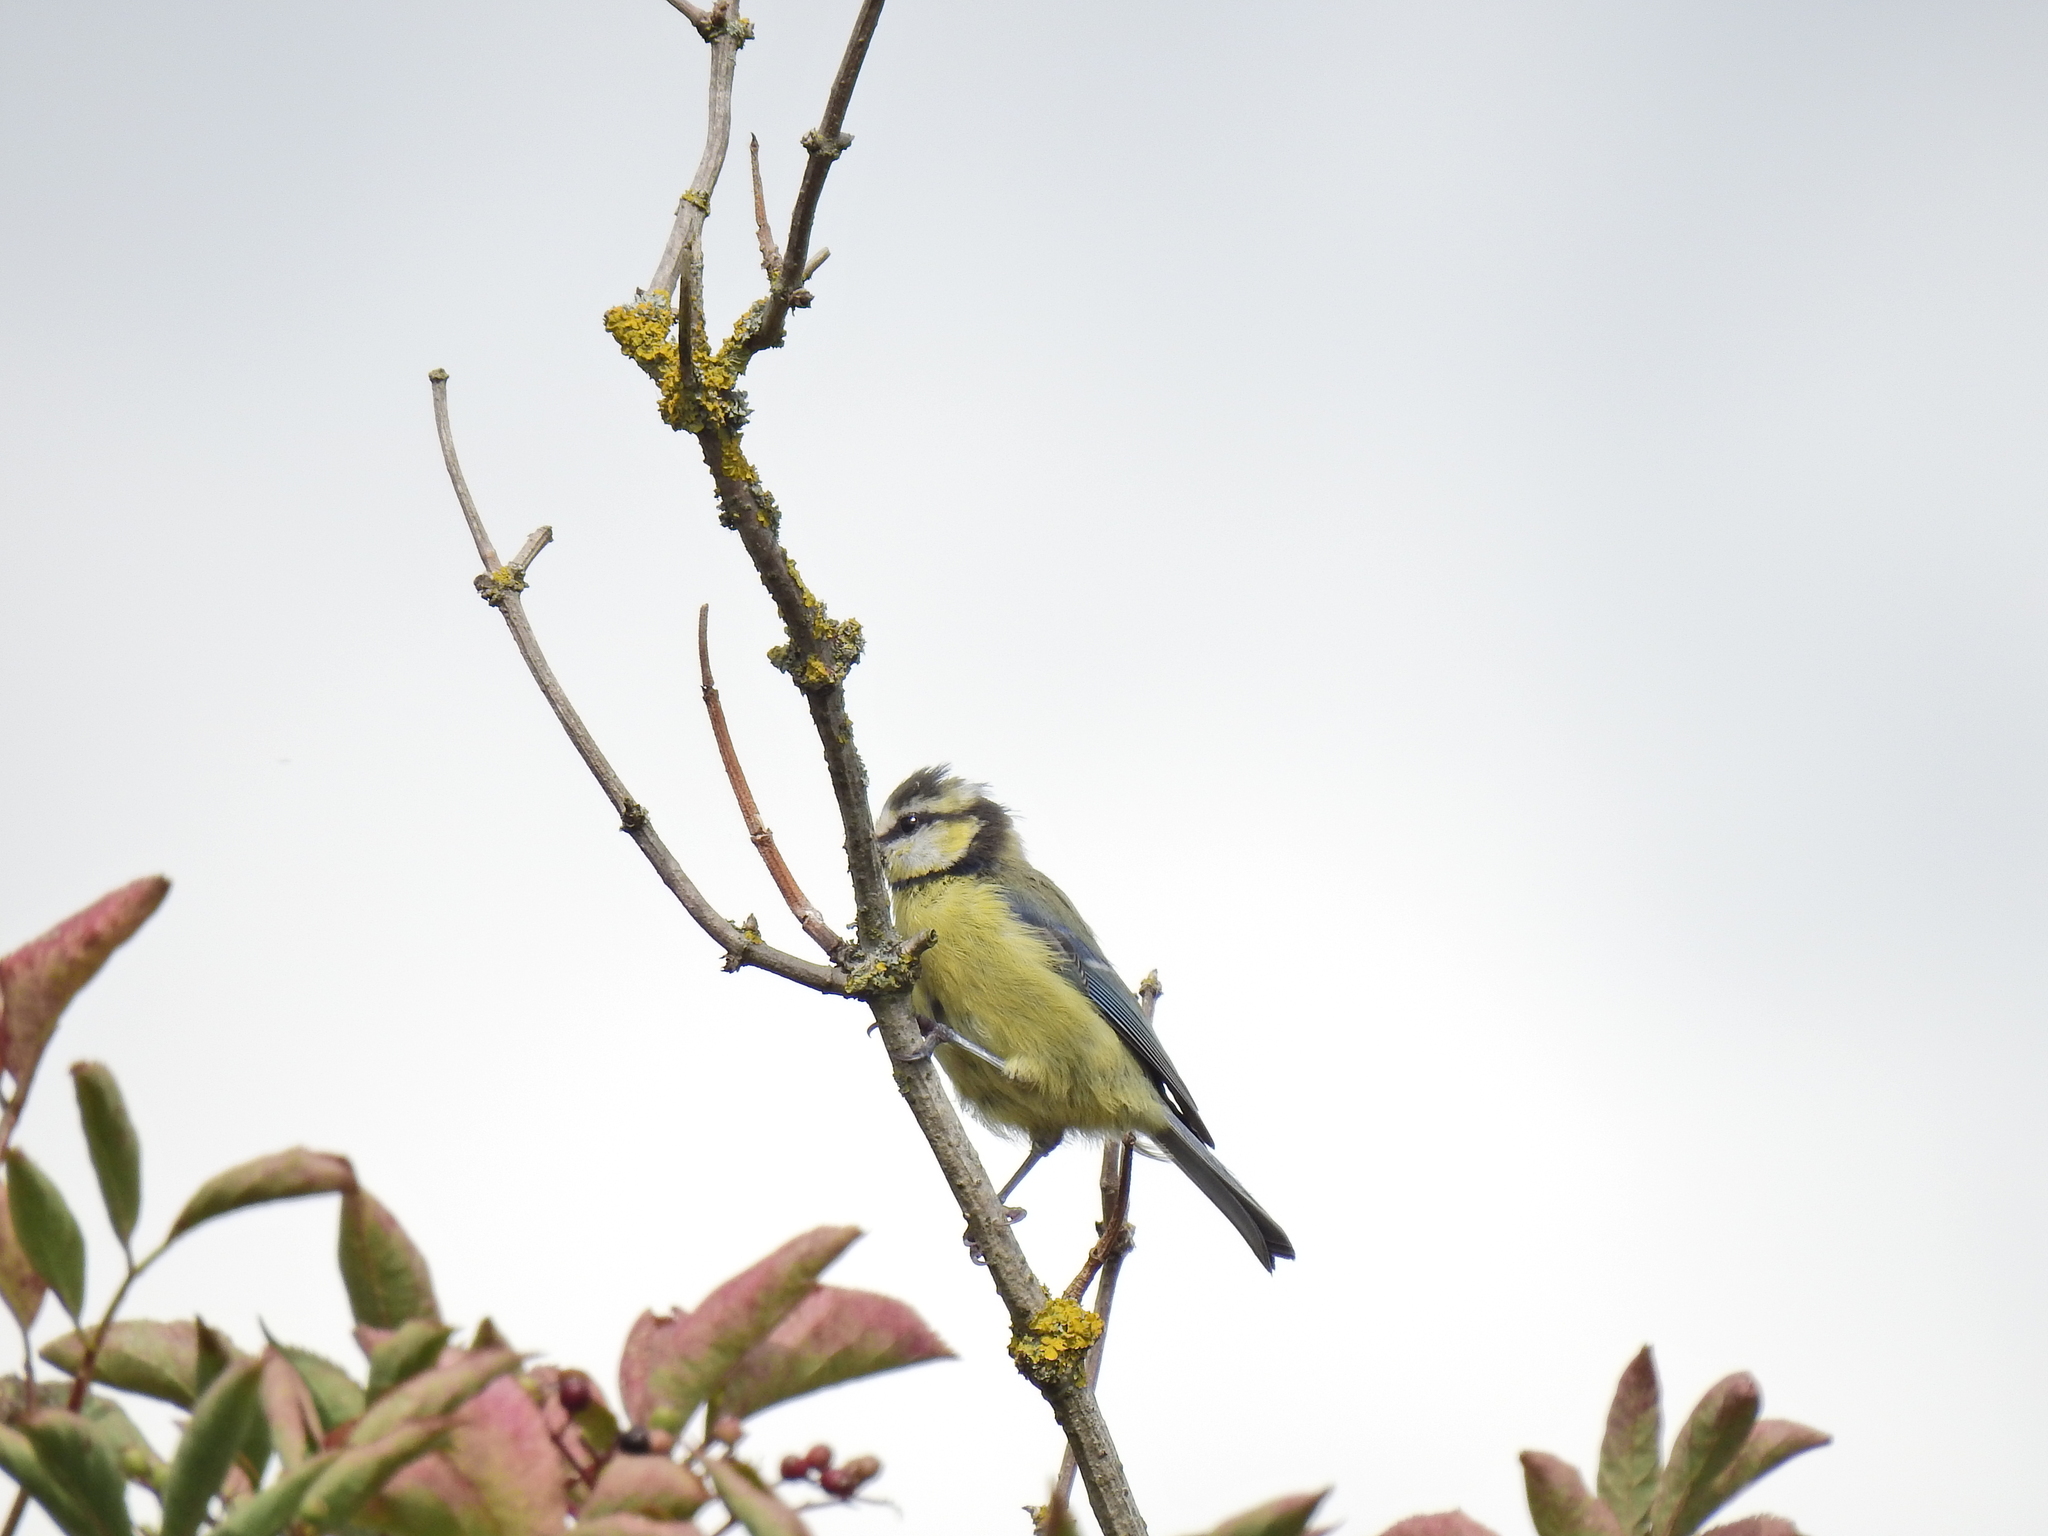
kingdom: Animalia
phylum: Chordata
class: Aves
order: Passeriformes
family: Paridae
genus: Cyanistes
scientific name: Cyanistes caeruleus
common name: Eurasian blue tit
